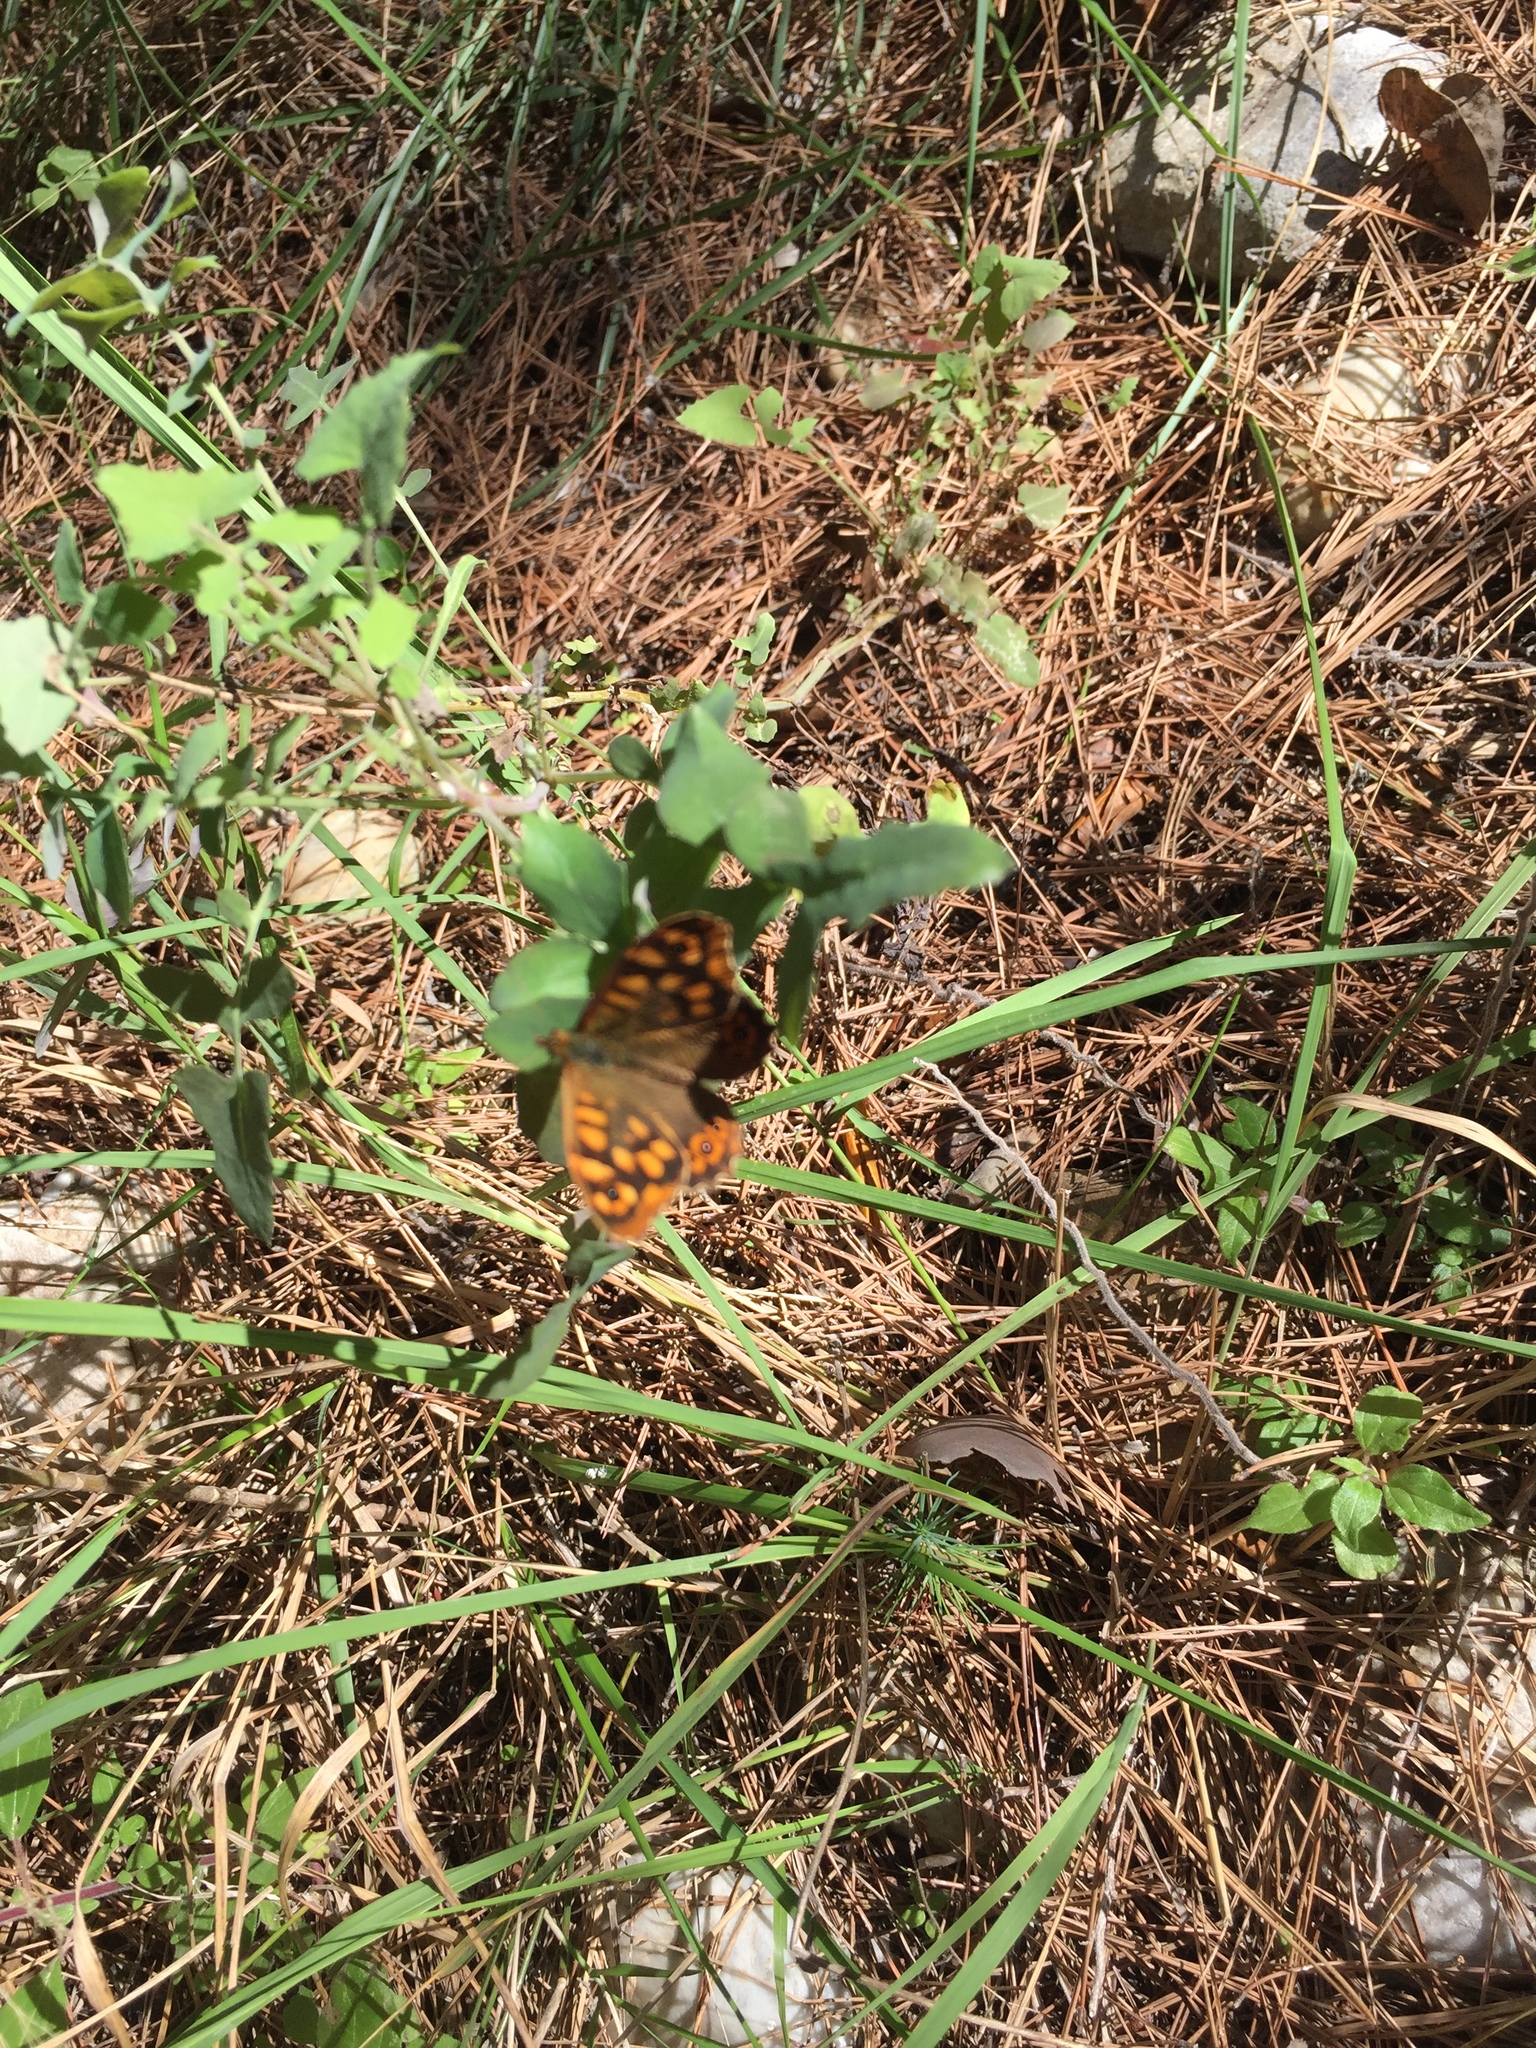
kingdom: Animalia
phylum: Arthropoda
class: Insecta
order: Lepidoptera
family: Nymphalidae
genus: Pararge
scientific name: Pararge aegeria
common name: Speckled wood
